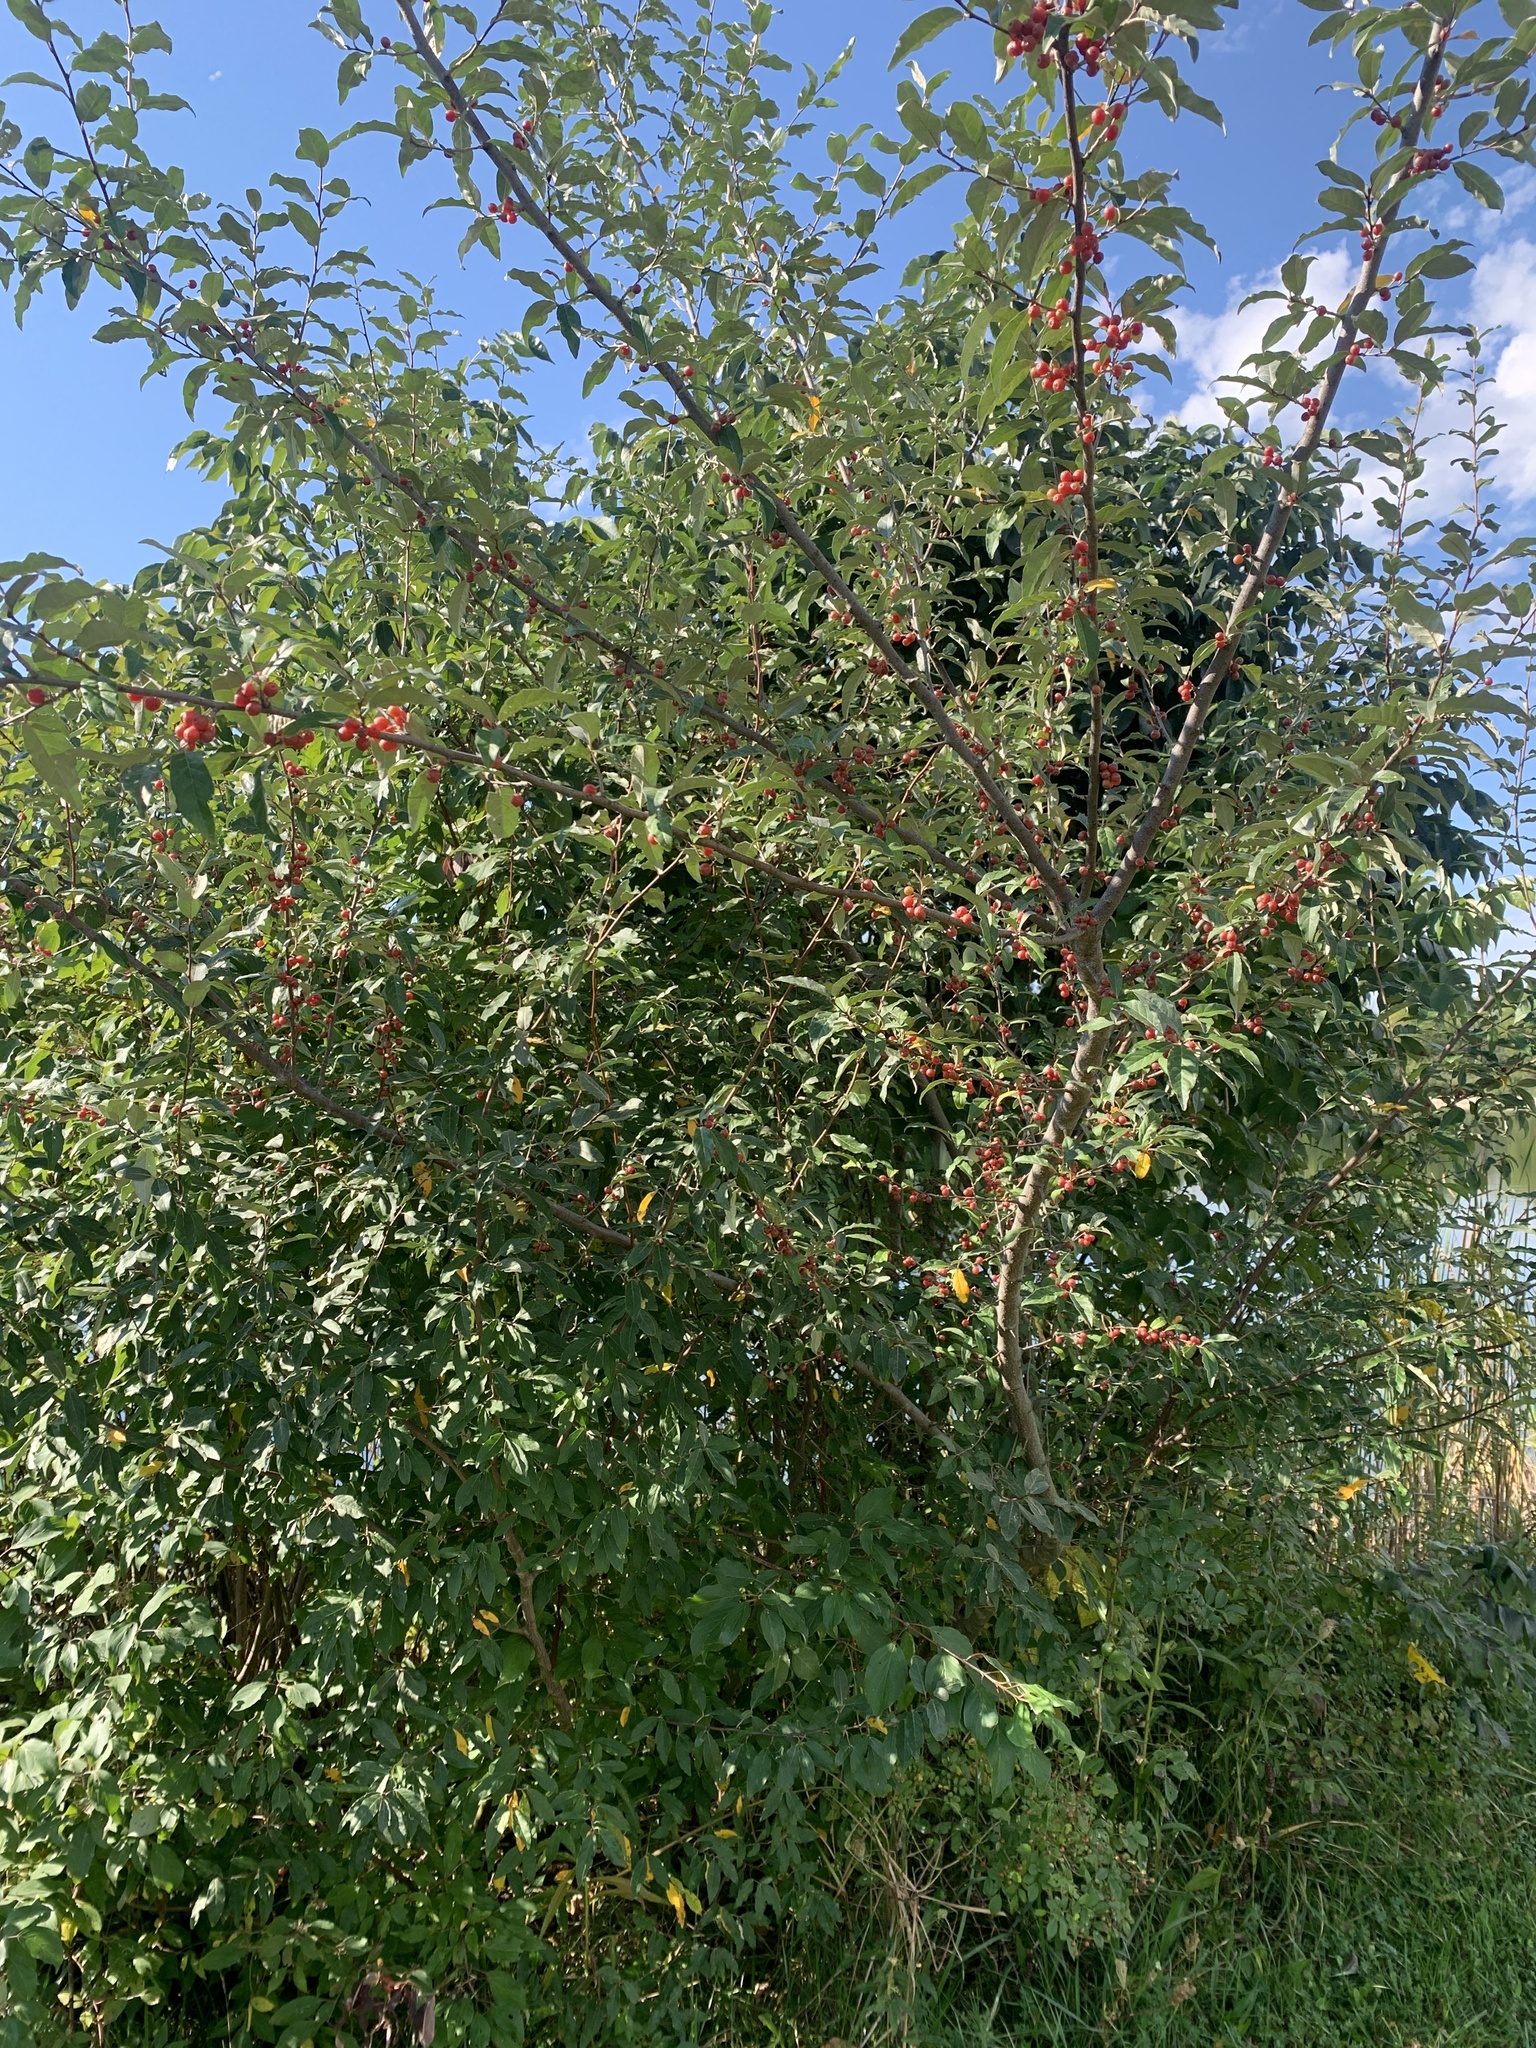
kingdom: Plantae
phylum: Tracheophyta
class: Magnoliopsida
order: Rosales
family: Elaeagnaceae
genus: Elaeagnus
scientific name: Elaeagnus umbellata
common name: Autumn olive
